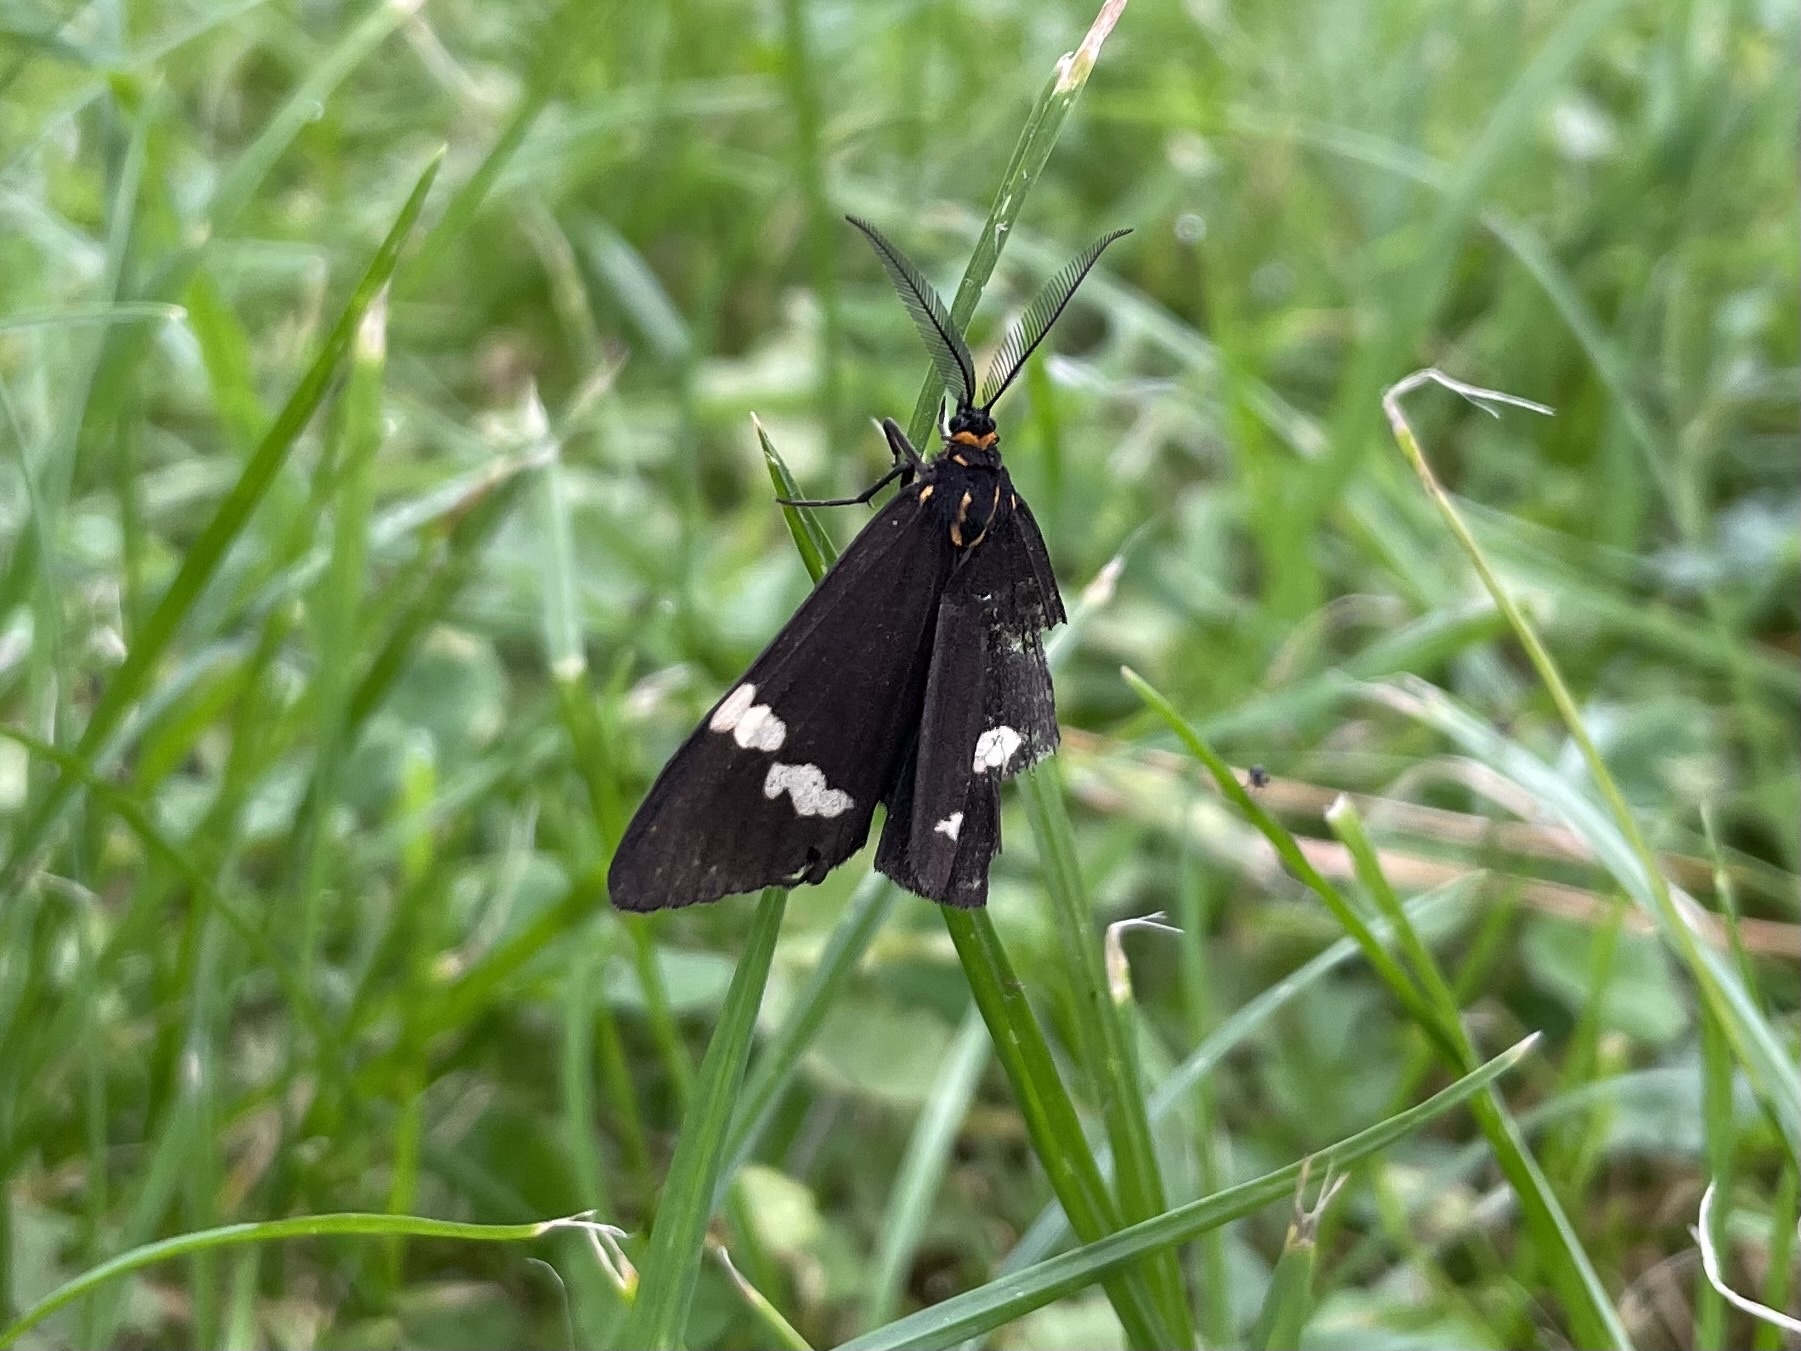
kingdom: Animalia
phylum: Arthropoda
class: Insecta
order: Lepidoptera
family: Erebidae
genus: Nyctemera
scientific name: Nyctemera annulatum
